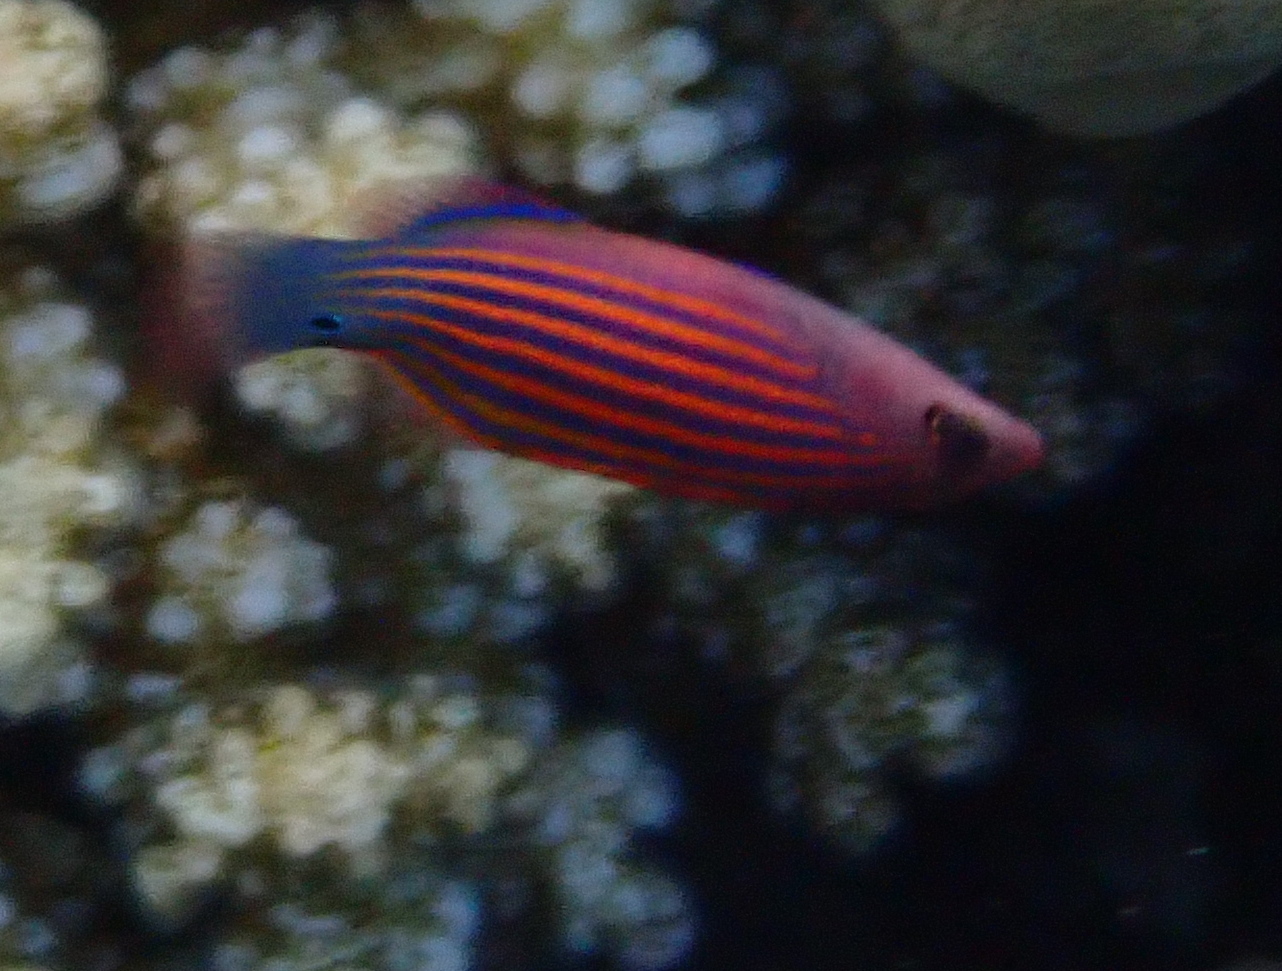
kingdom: Animalia
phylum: Chordata
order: Perciformes
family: Labridae
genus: Pseudocheilinus
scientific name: Pseudocheilinus hexataenia
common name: Sixline wrasse
